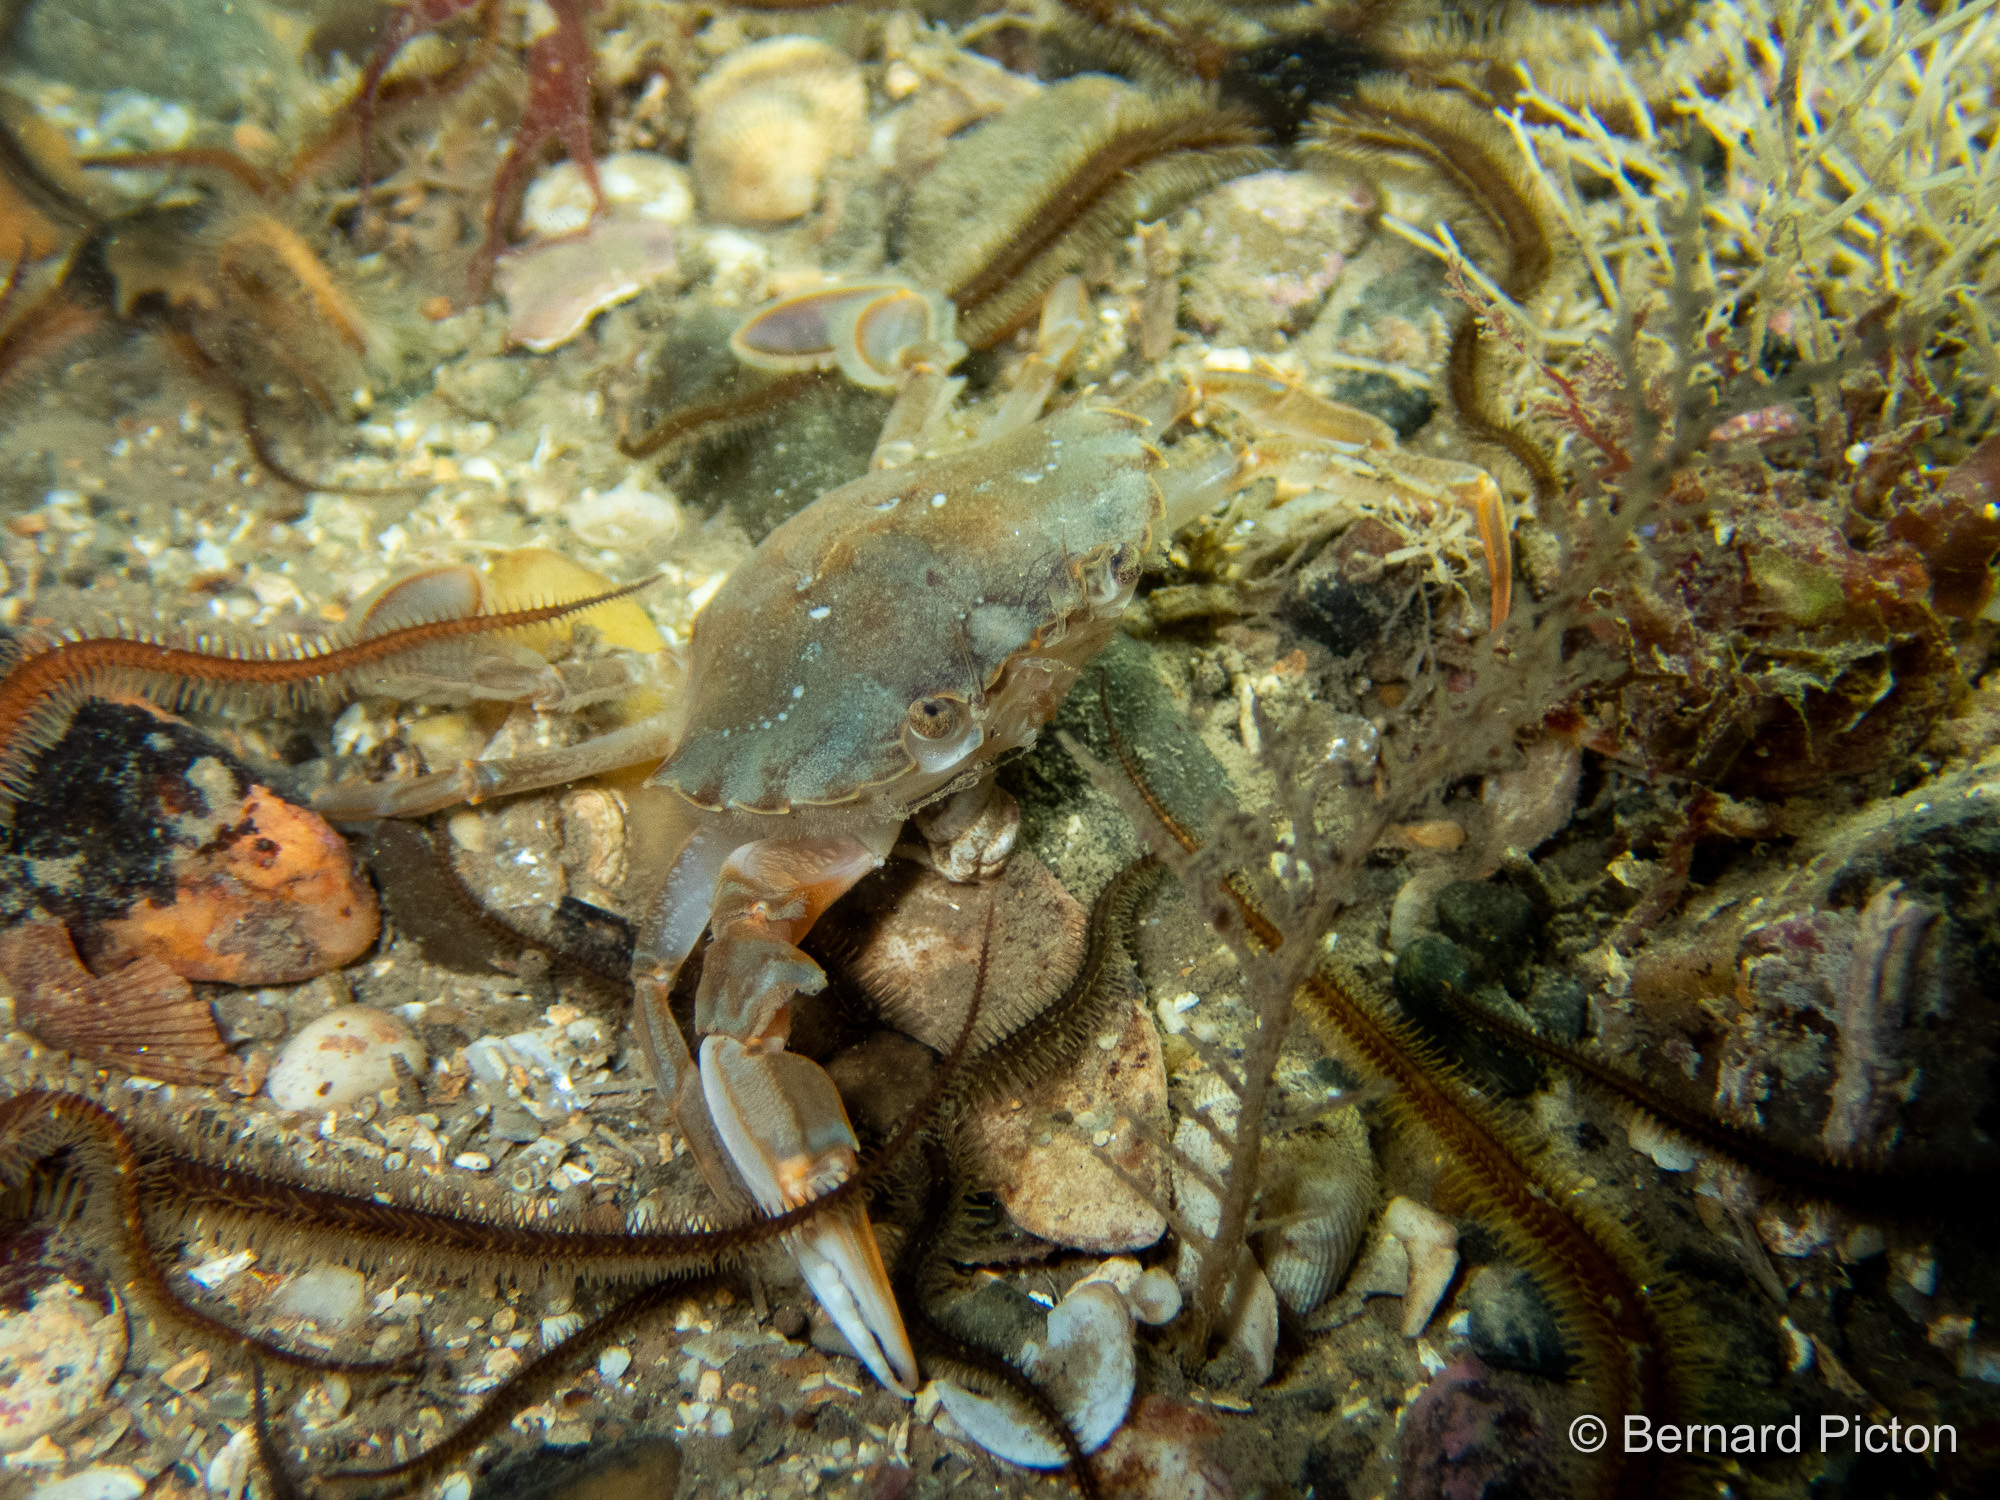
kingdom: Animalia
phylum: Arthropoda
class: Malacostraca
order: Decapoda
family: Polybiidae
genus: Liocarcinus
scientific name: Liocarcinus holsatus
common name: Flying crab
